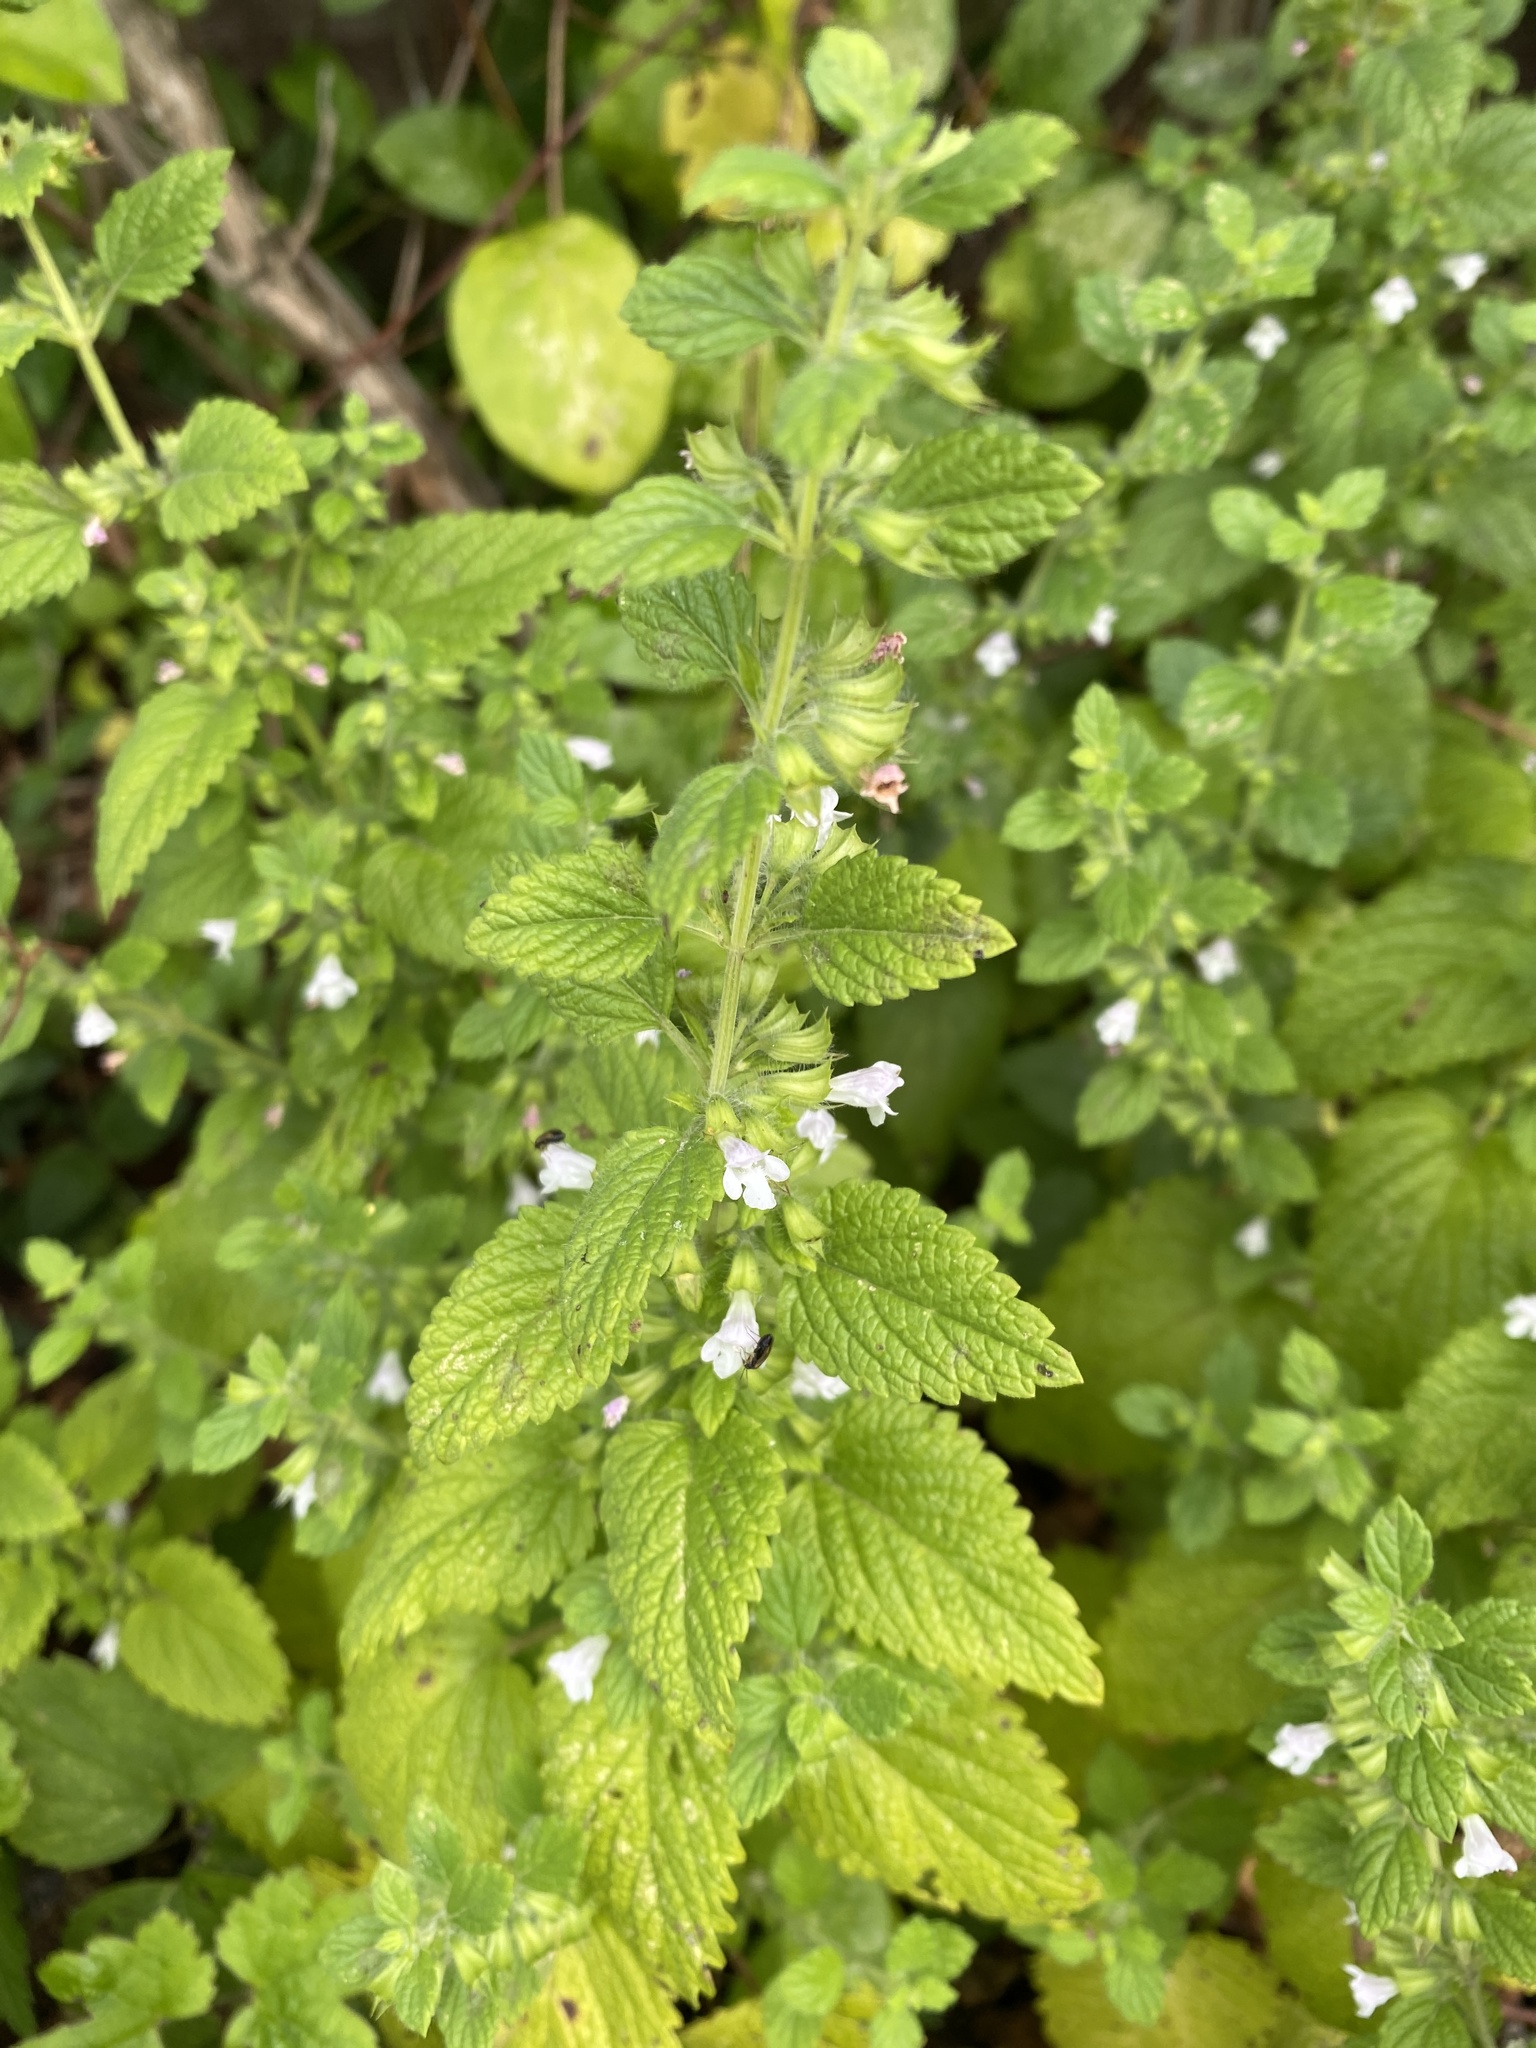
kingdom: Plantae
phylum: Tracheophyta
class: Magnoliopsida
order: Lamiales
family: Lamiaceae
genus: Melissa
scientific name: Melissa officinalis
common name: Balm
